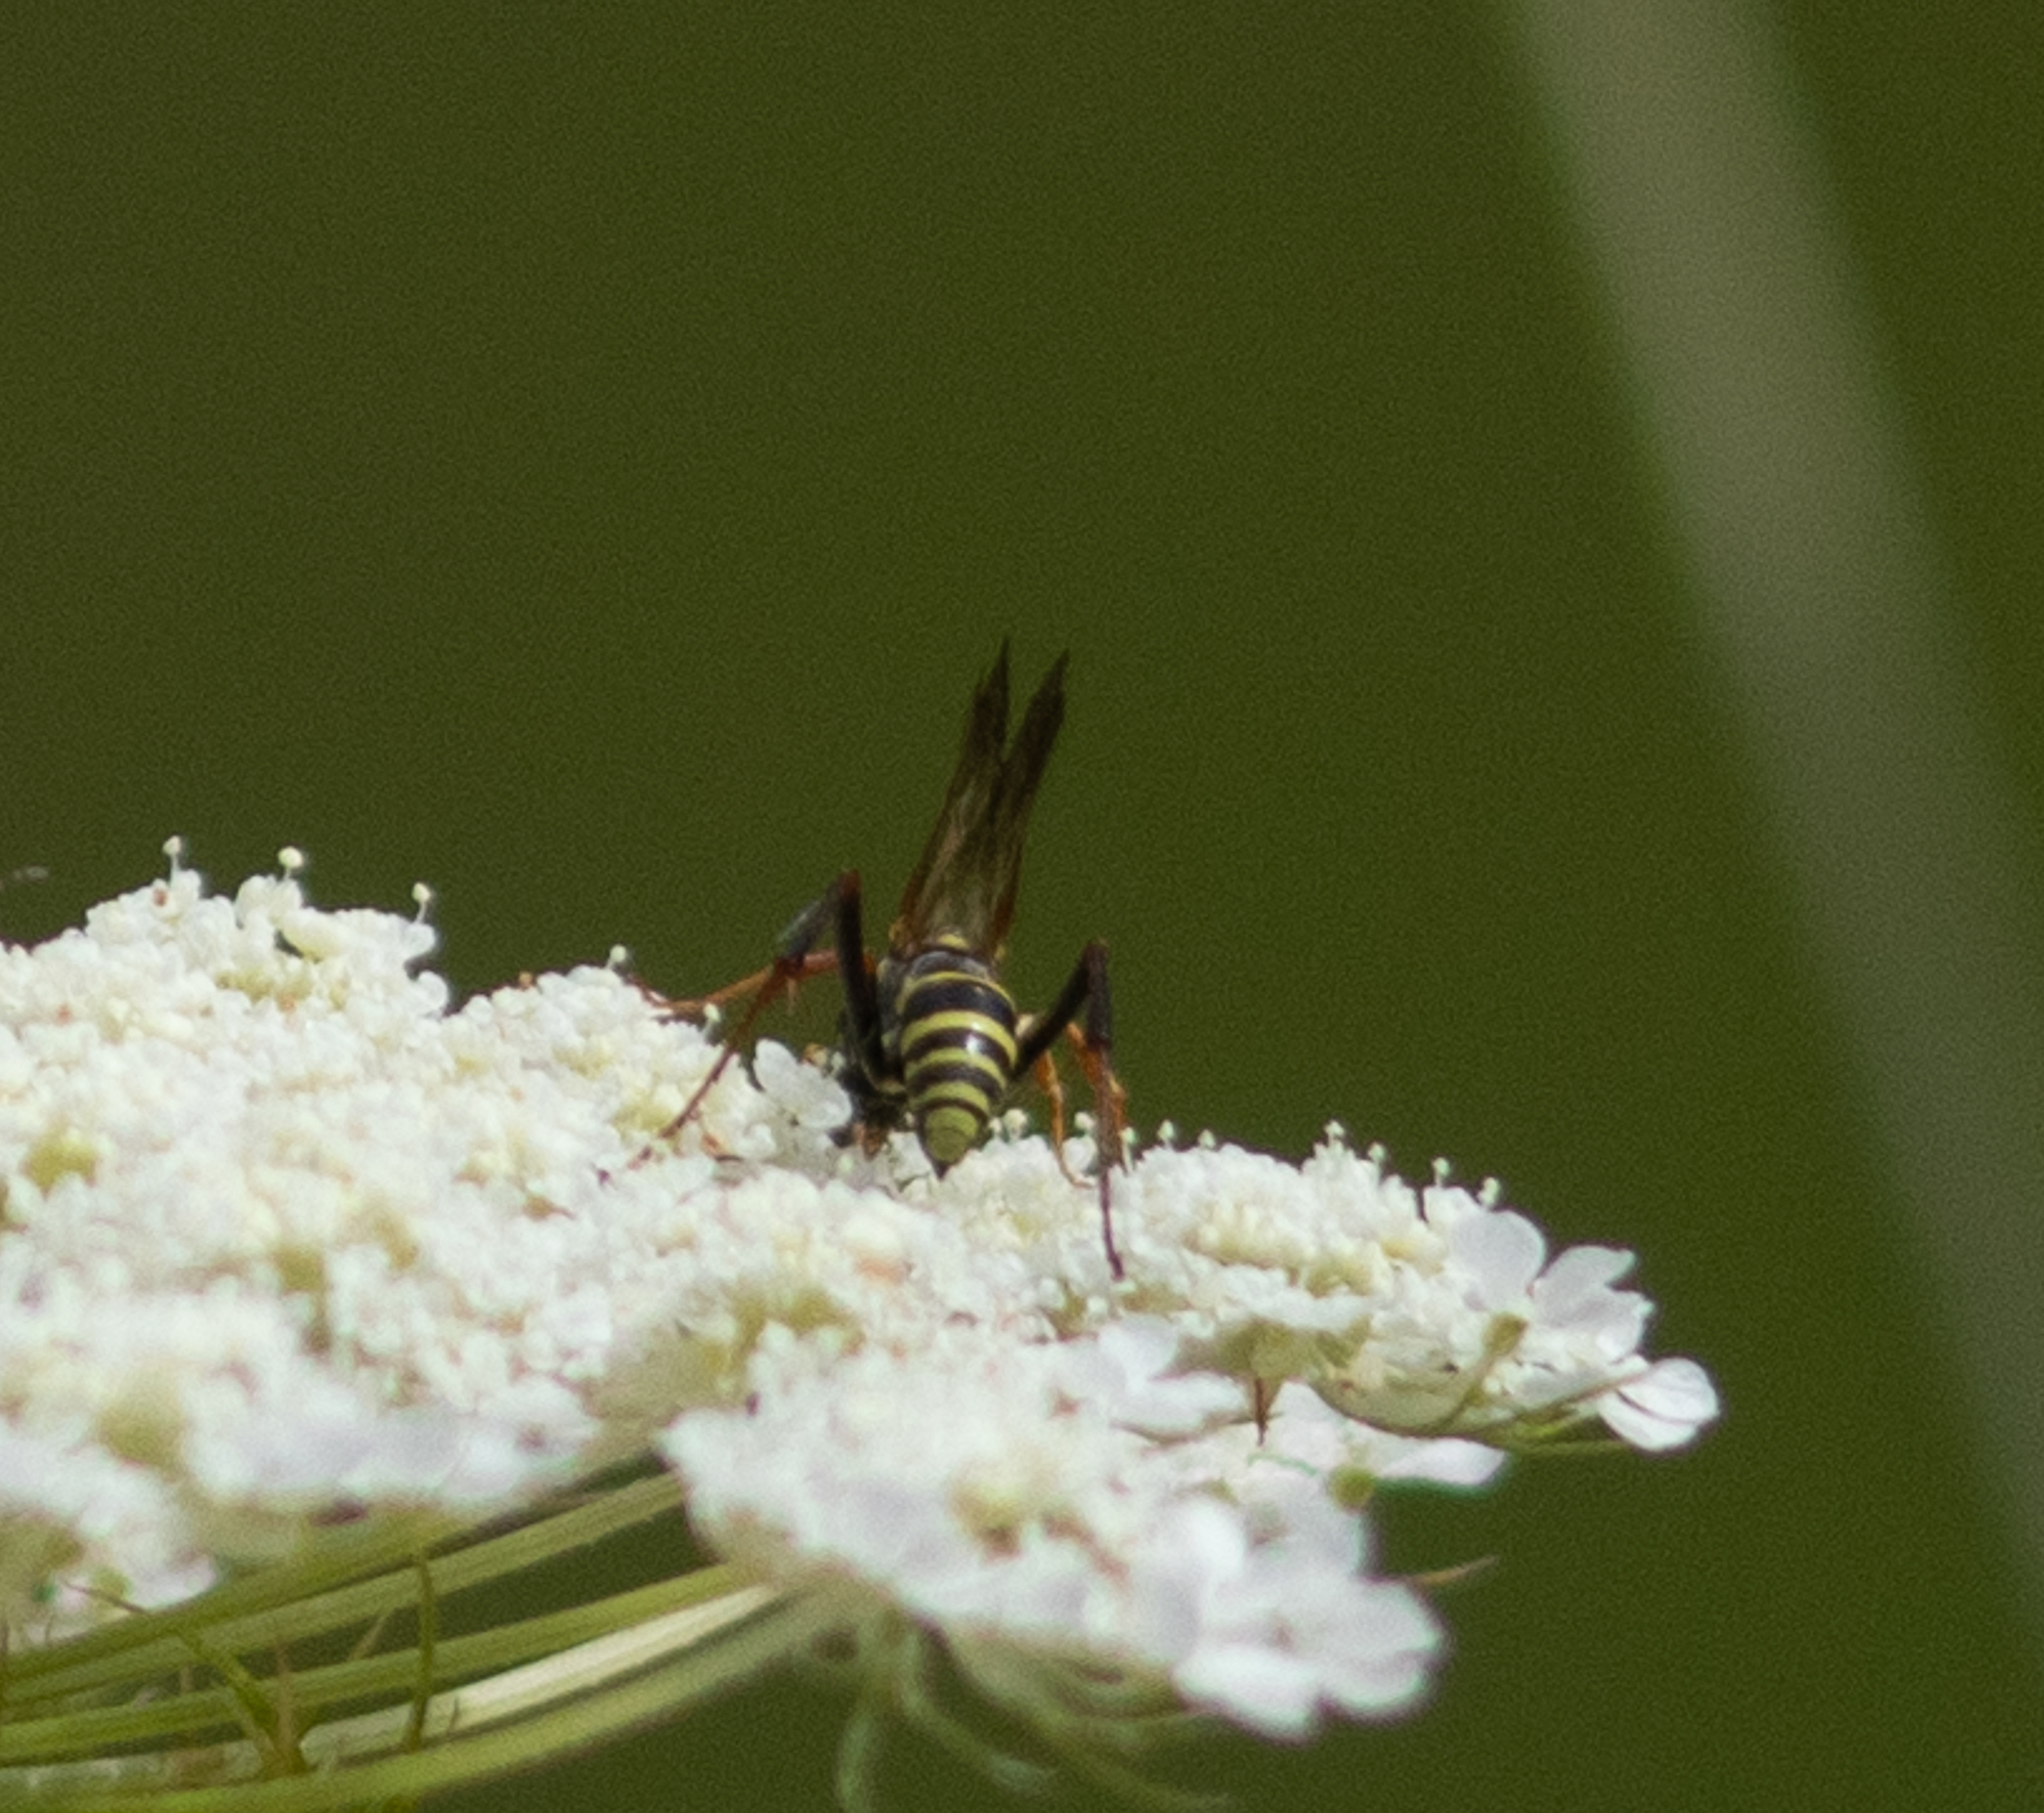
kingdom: Animalia
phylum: Arthropoda
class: Insecta
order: Hymenoptera
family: Pompilidae
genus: Ceropales
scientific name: Ceropales maculata
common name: Spider wasp
